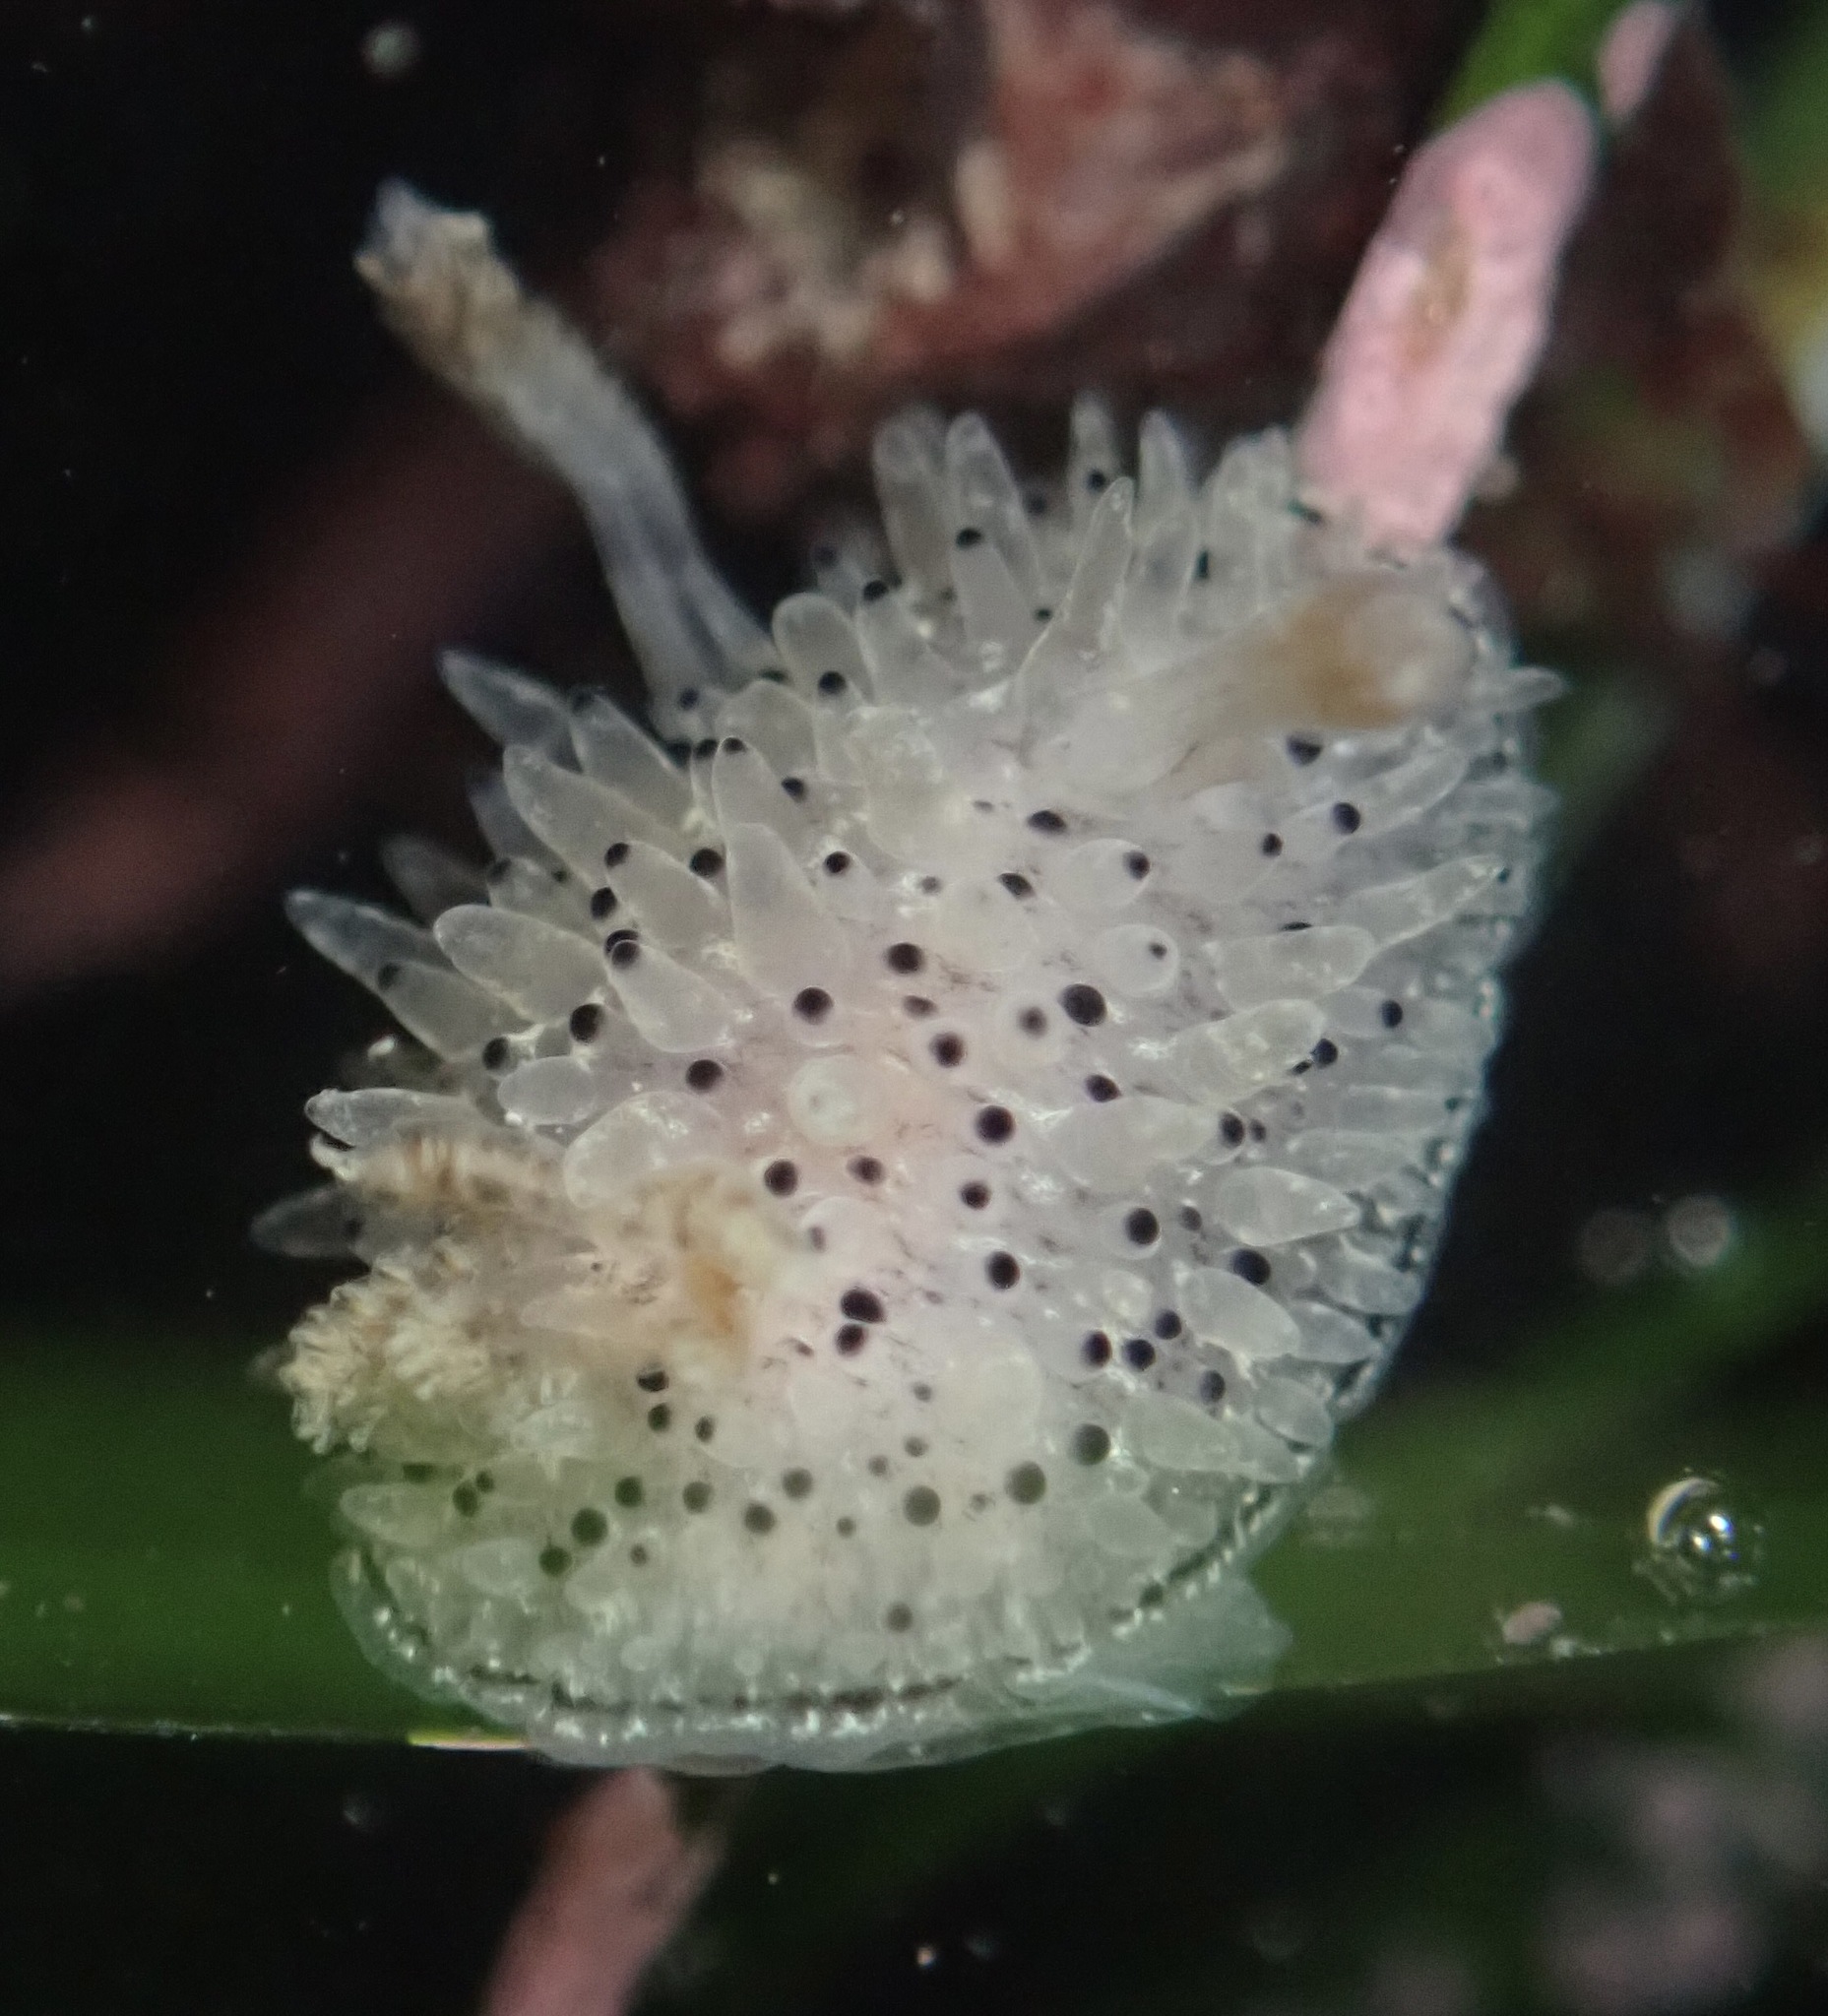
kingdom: Animalia
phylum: Mollusca
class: Gastropoda
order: Nudibranchia
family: Onchidorididae
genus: Acanthodoris
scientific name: Acanthodoris rhodoceras
